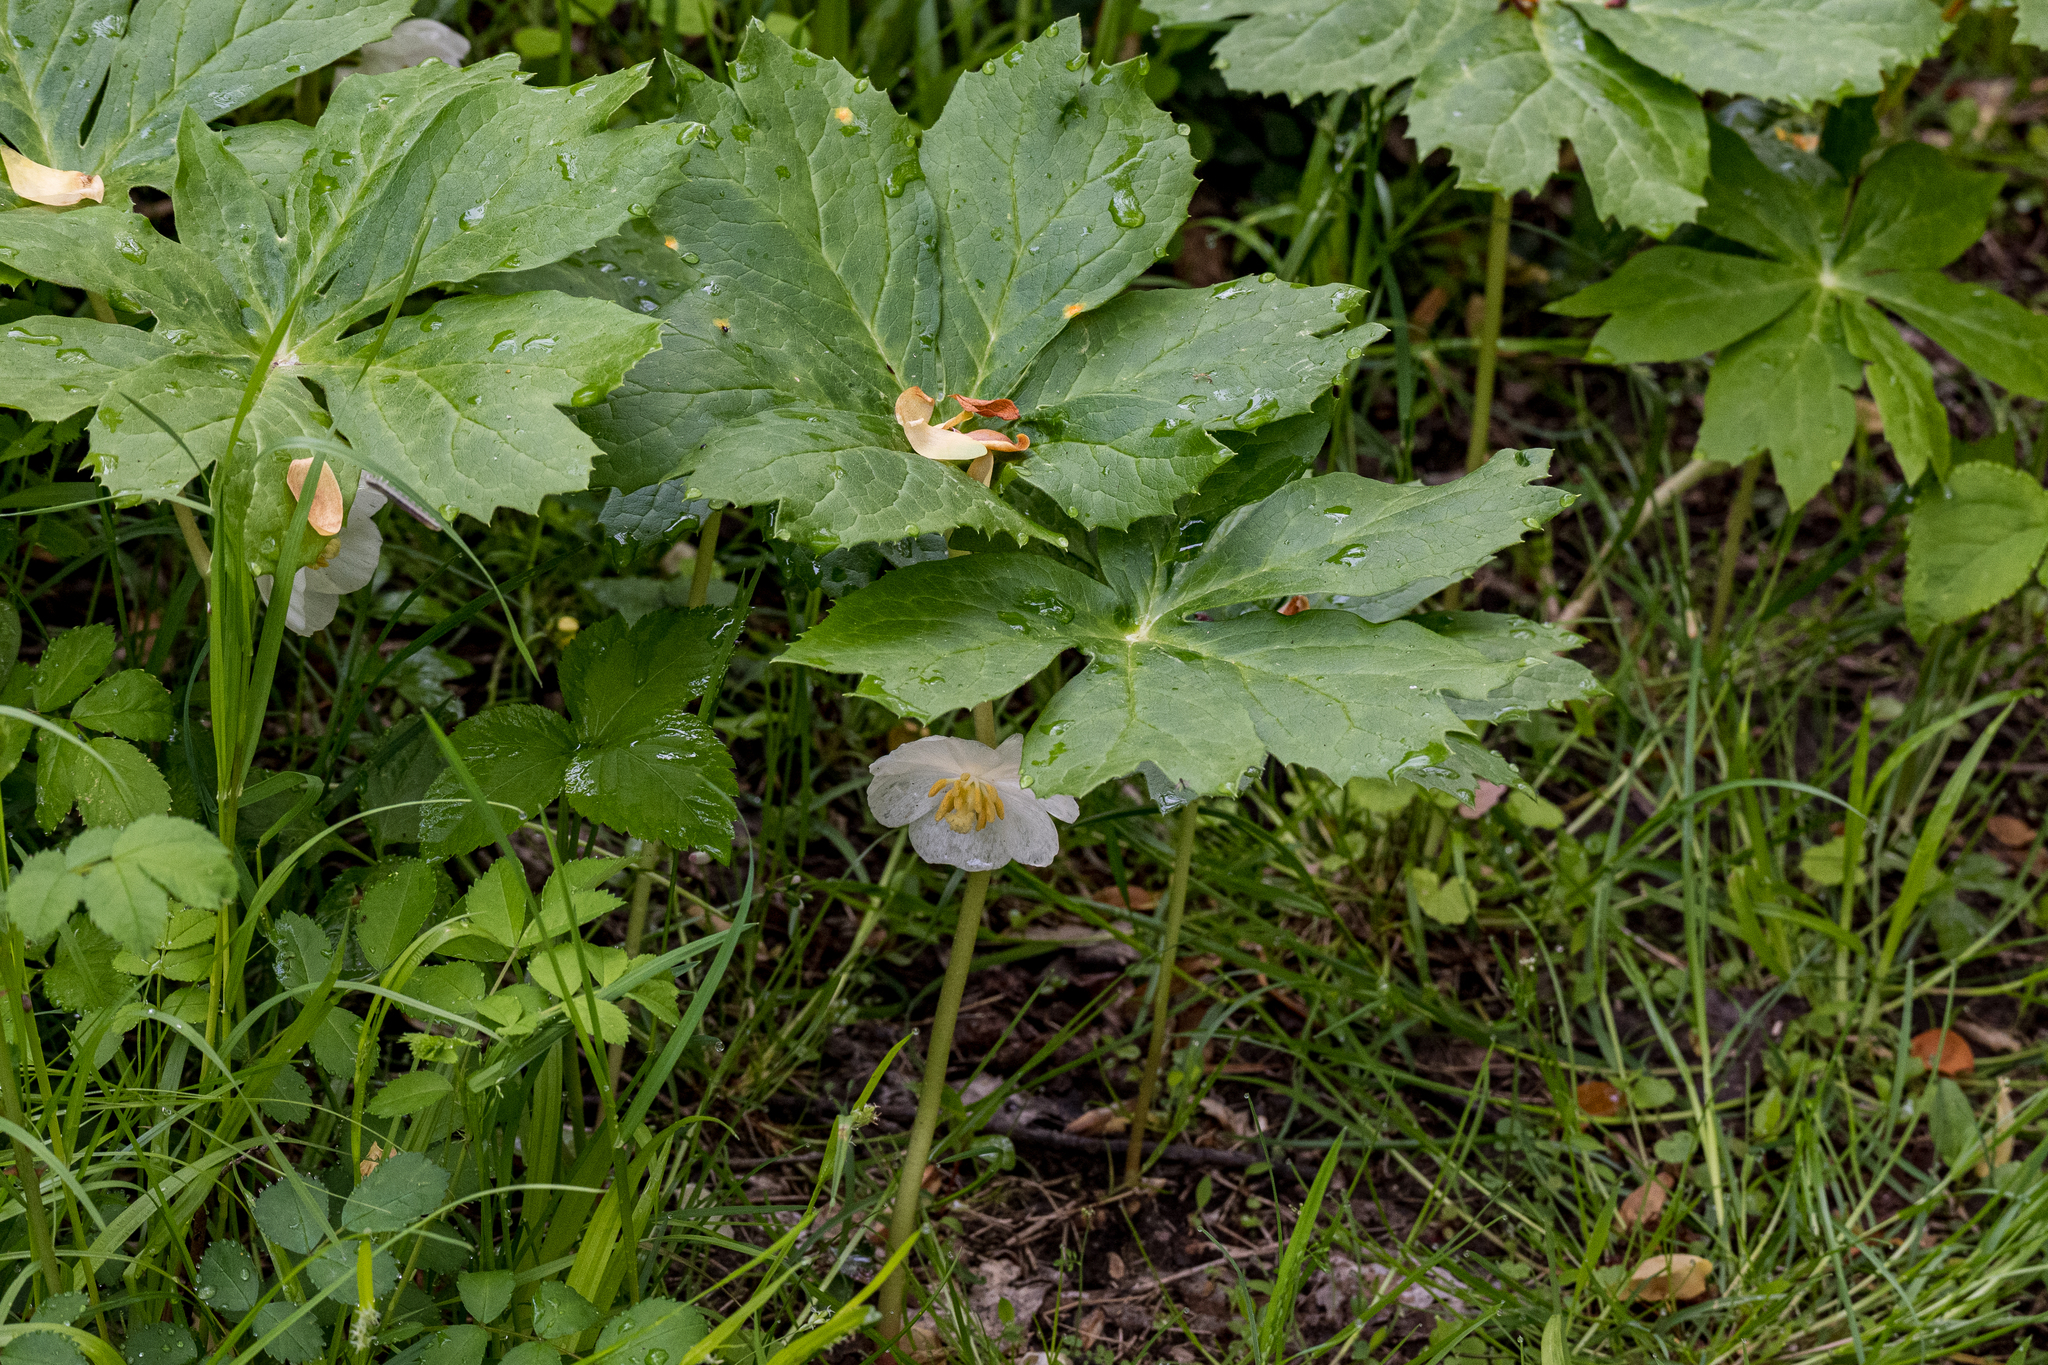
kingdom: Plantae
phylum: Tracheophyta
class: Magnoliopsida
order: Ranunculales
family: Berberidaceae
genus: Podophyllum
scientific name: Podophyllum peltatum
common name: Wild mandrake
